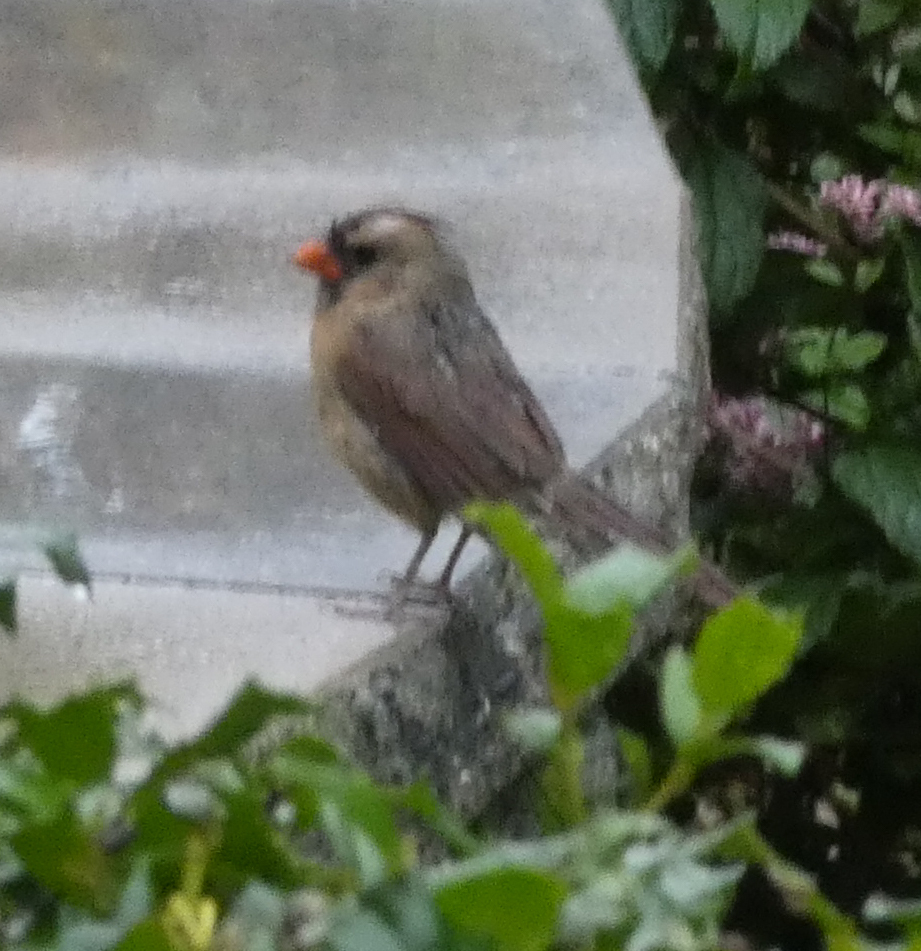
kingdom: Animalia
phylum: Chordata
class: Aves
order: Passeriformes
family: Cardinalidae
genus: Cardinalis
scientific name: Cardinalis cardinalis
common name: Northern cardinal
